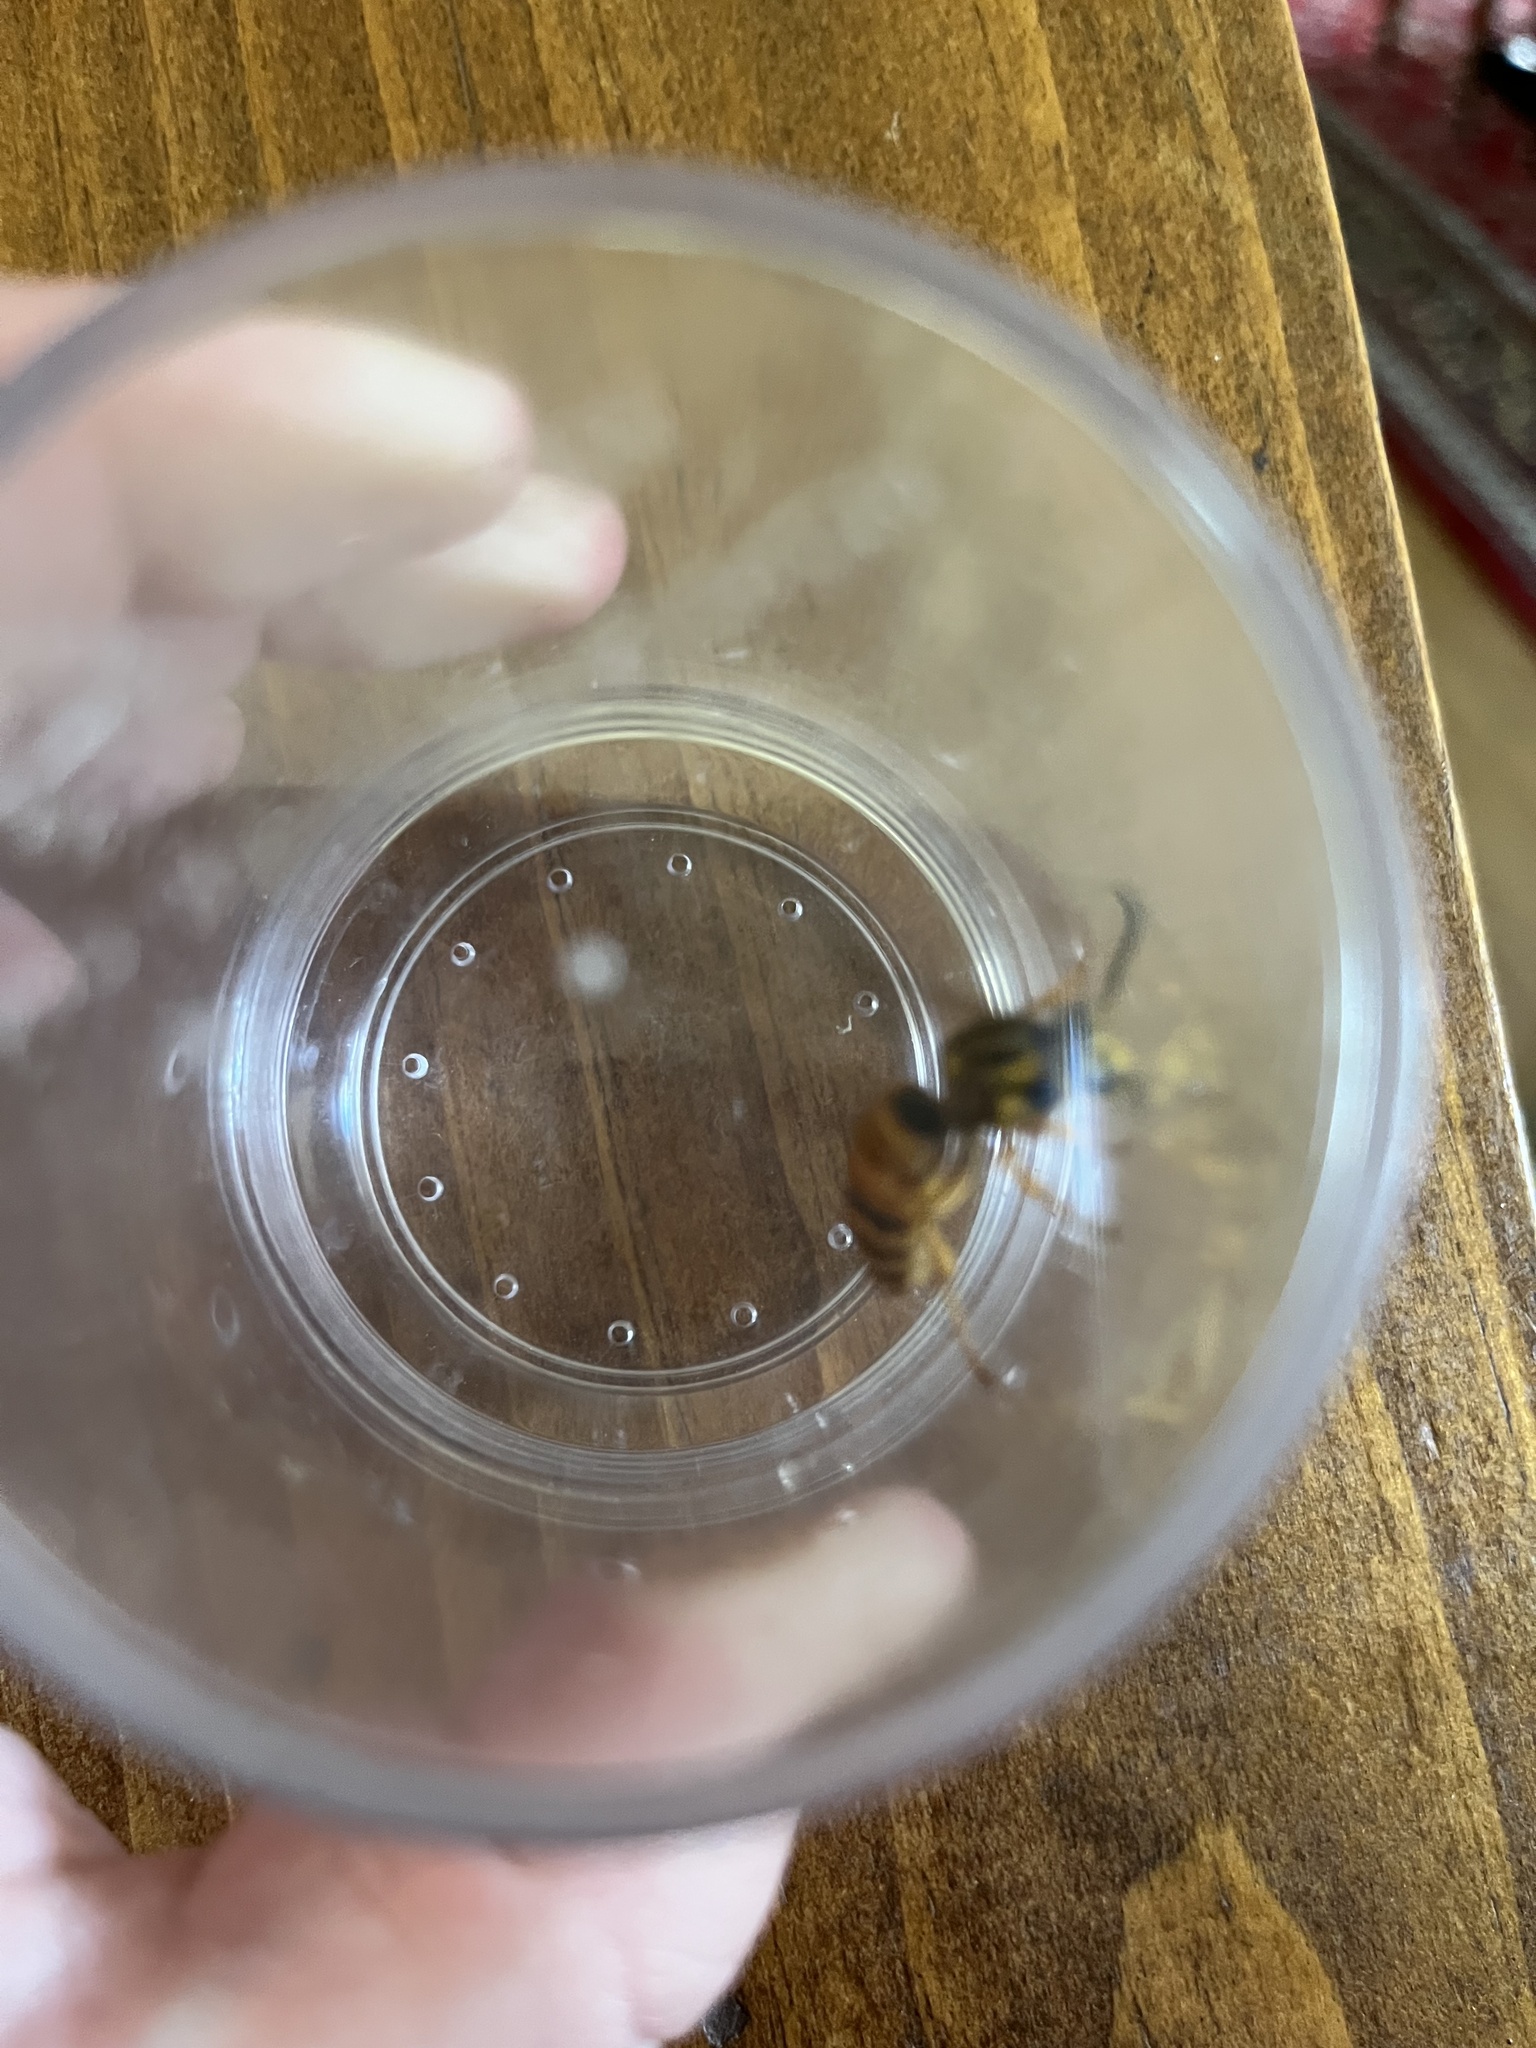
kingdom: Animalia
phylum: Arthropoda
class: Insecta
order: Hymenoptera
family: Vespidae
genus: Vespula
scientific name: Vespula squamosa
